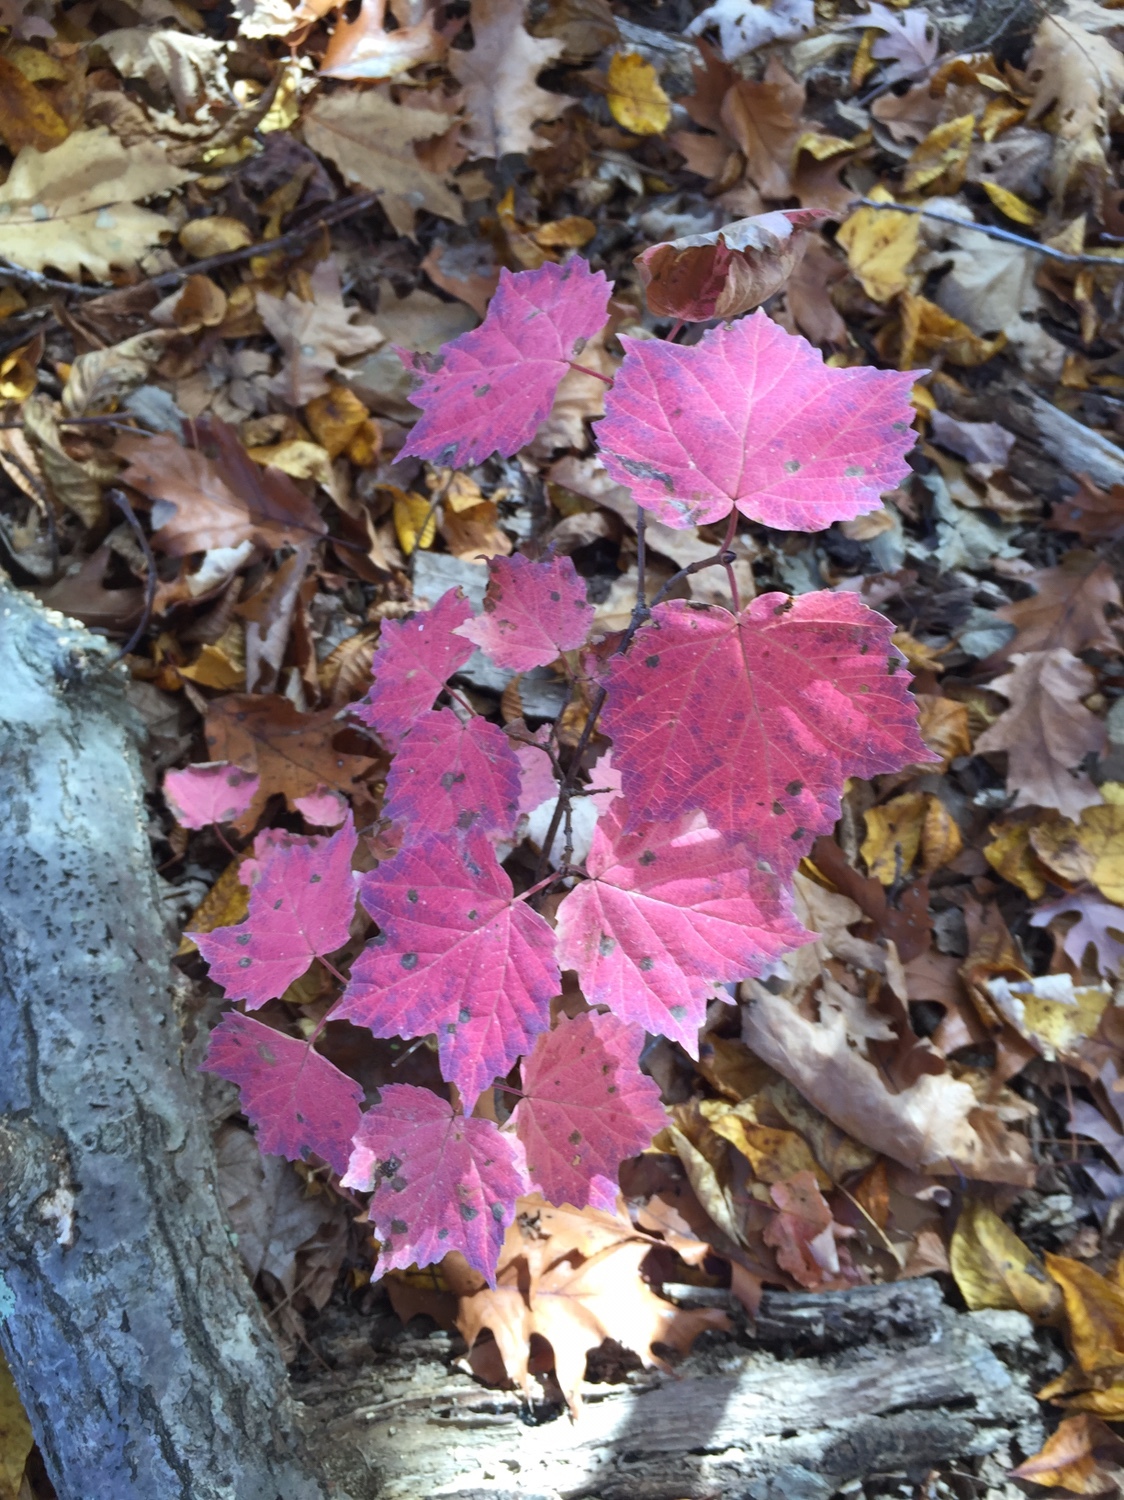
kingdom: Plantae
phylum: Tracheophyta
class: Magnoliopsida
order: Dipsacales
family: Viburnaceae
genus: Viburnum
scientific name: Viburnum acerifolium
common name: Dockmackie
